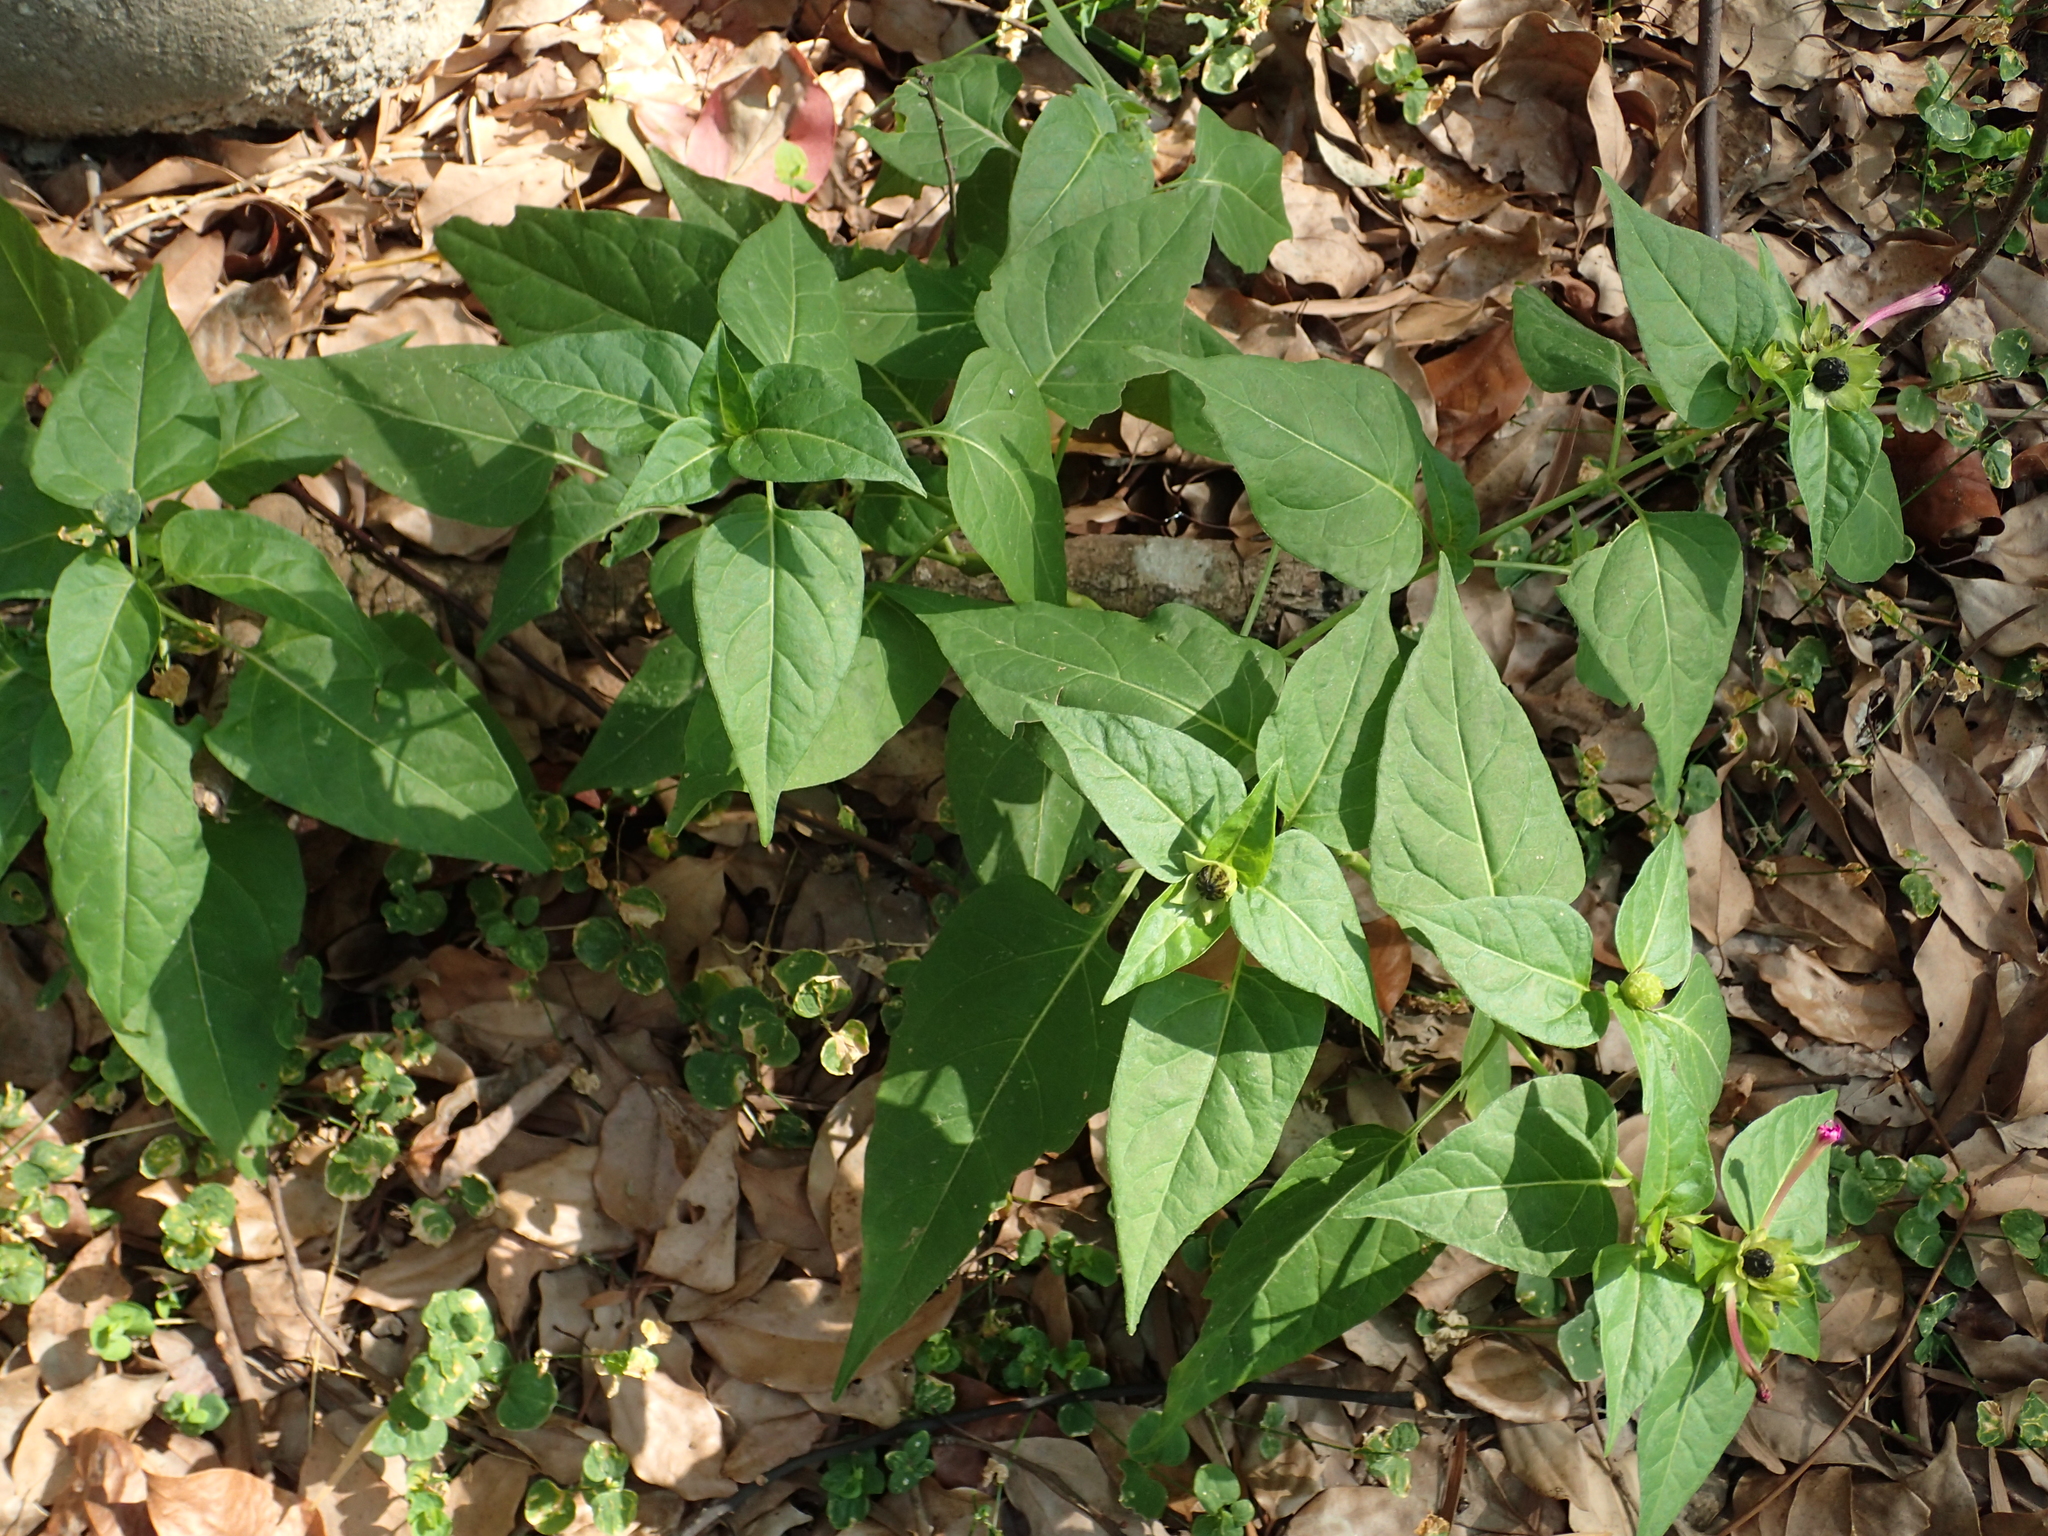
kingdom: Plantae
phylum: Tracheophyta
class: Magnoliopsida
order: Caryophyllales
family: Nyctaginaceae
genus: Mirabilis
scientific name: Mirabilis jalapa
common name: Marvel-of-peru
